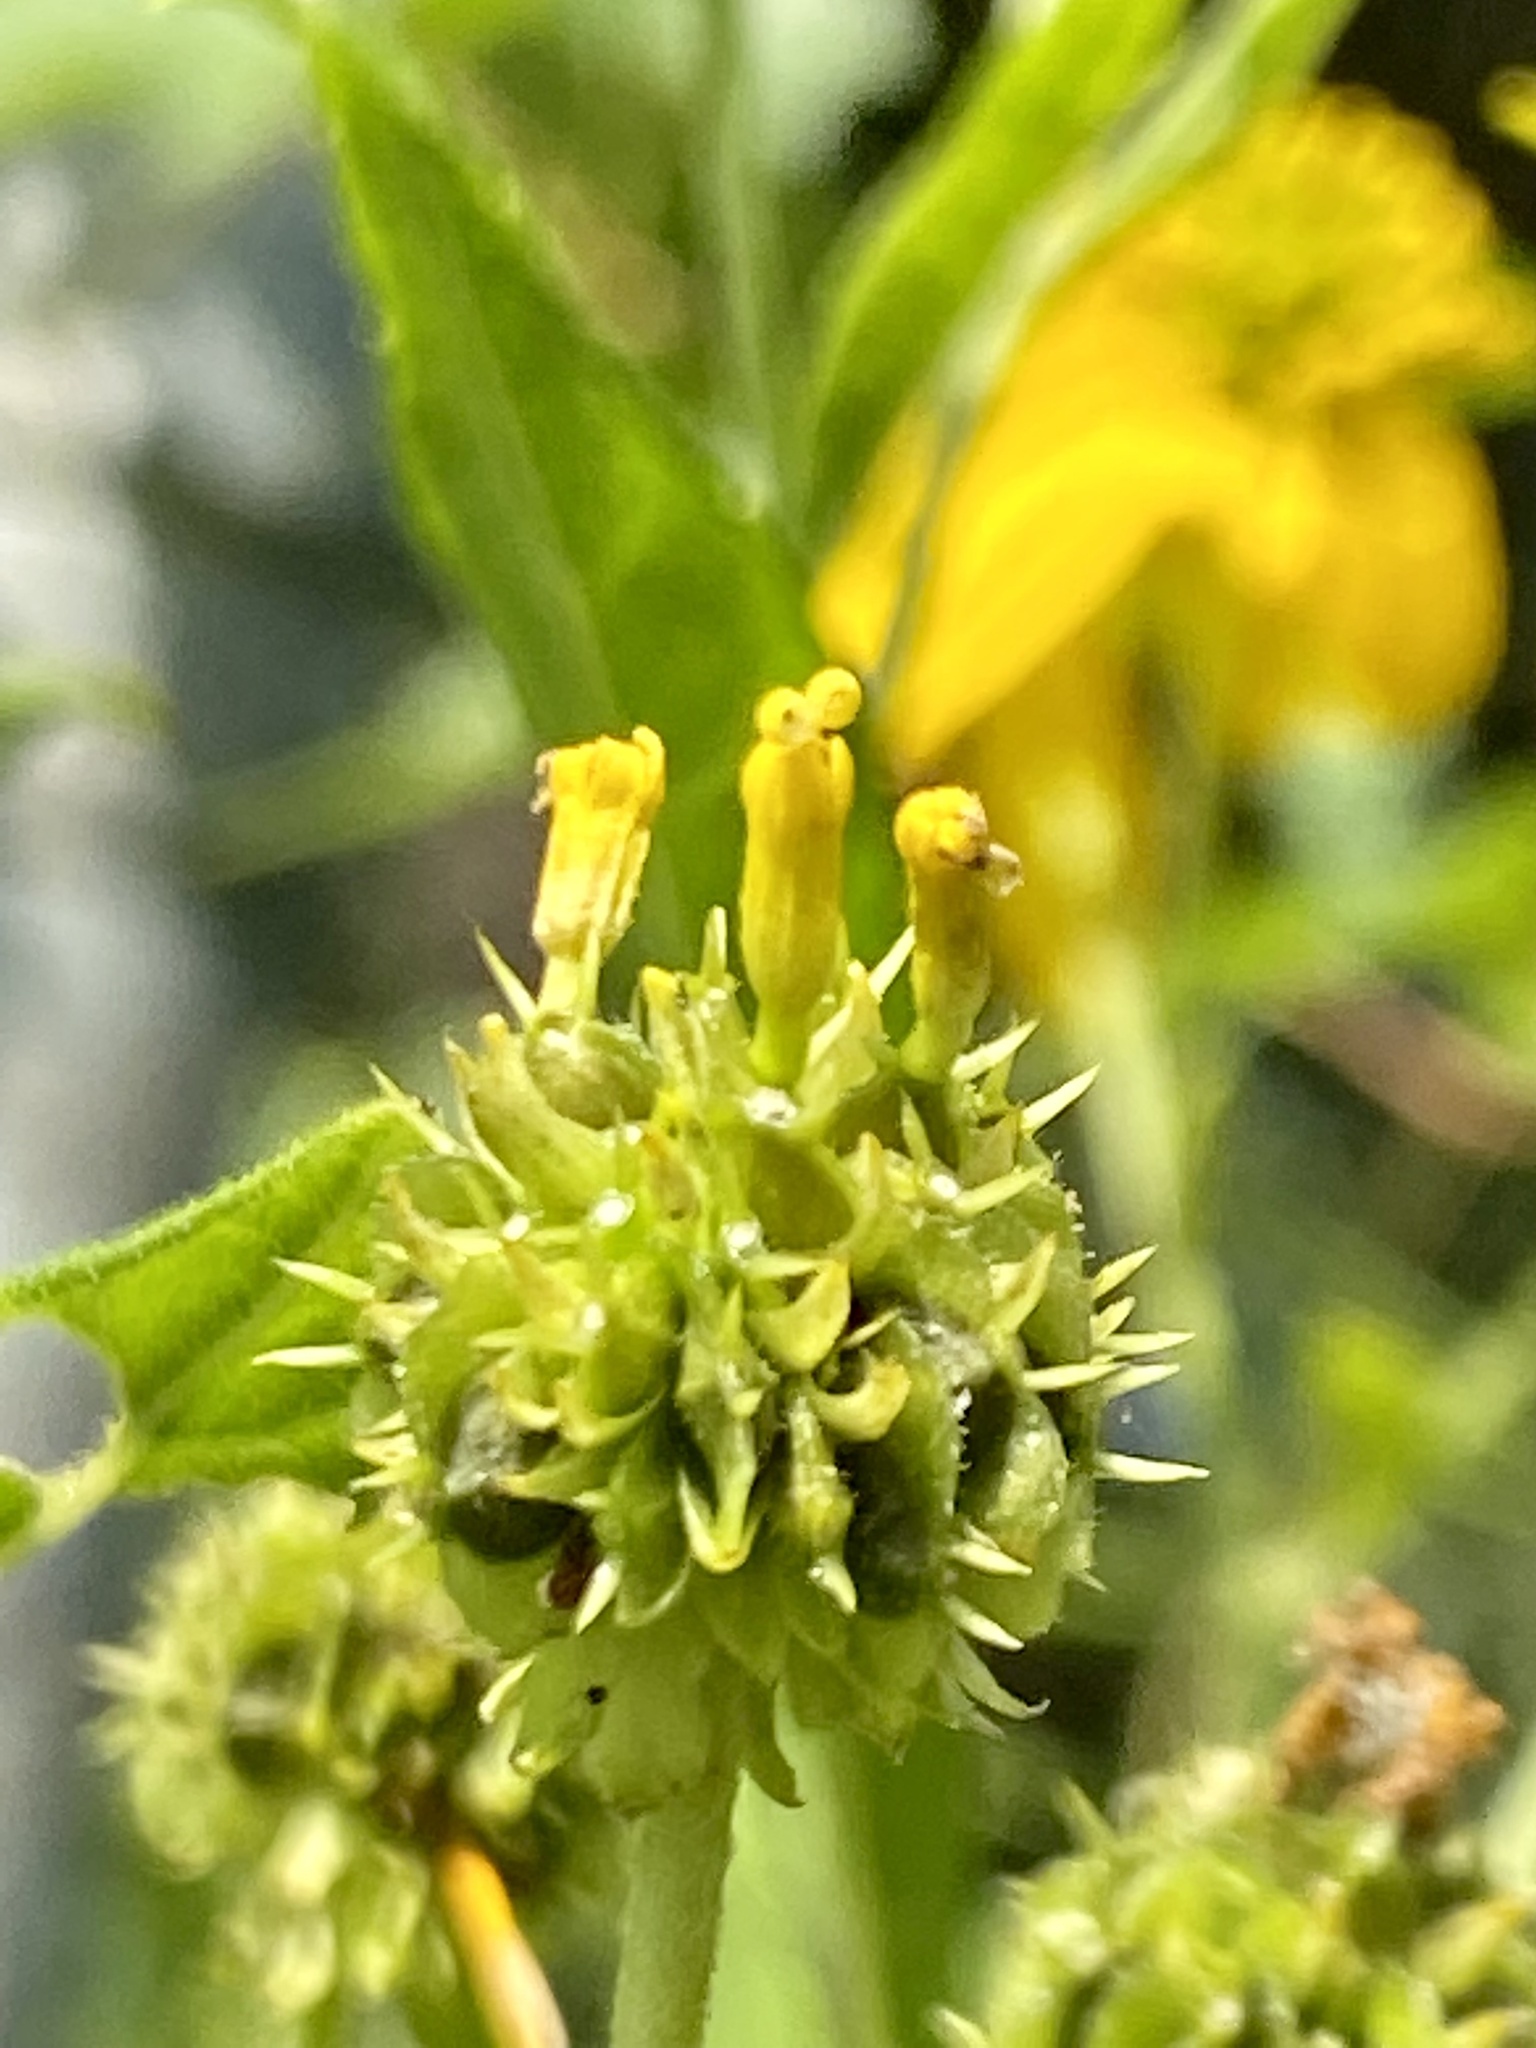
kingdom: Plantae
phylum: Tracheophyta
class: Magnoliopsida
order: Asterales
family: Asteraceae
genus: Verbesina
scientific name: Verbesina alternifolia
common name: Wingstem
